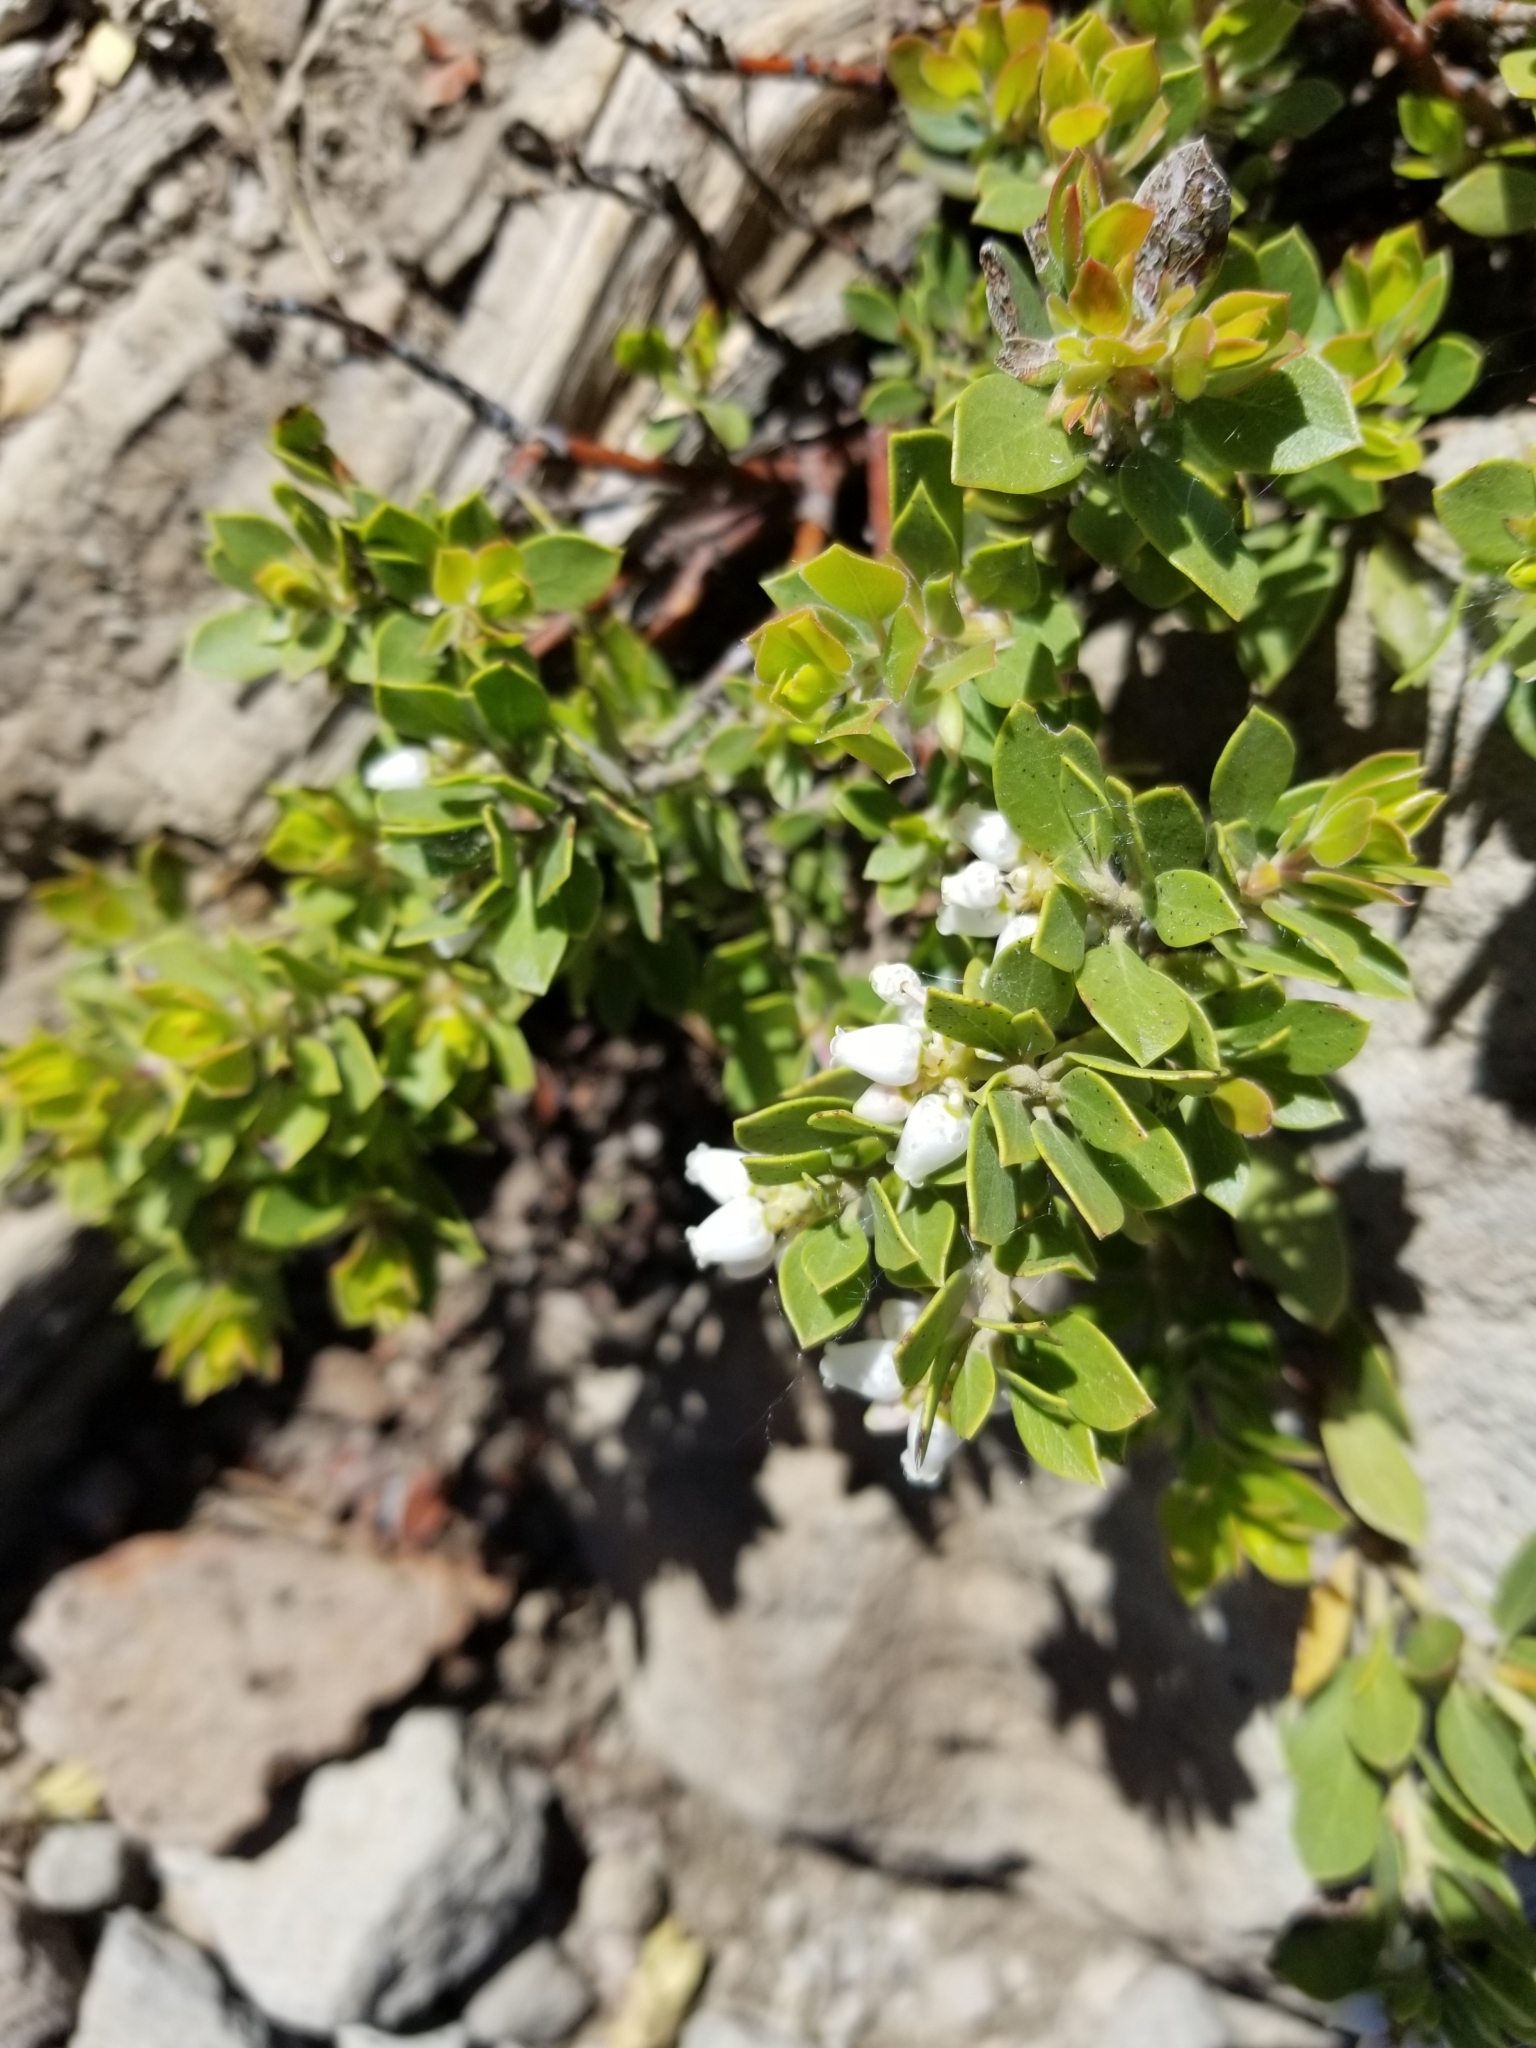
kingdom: Plantae
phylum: Tracheophyta
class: Magnoliopsida
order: Ericales
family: Ericaceae
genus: Arctostaphylos
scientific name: Arctostaphylos nevadensis
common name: Pinemat manzanita
